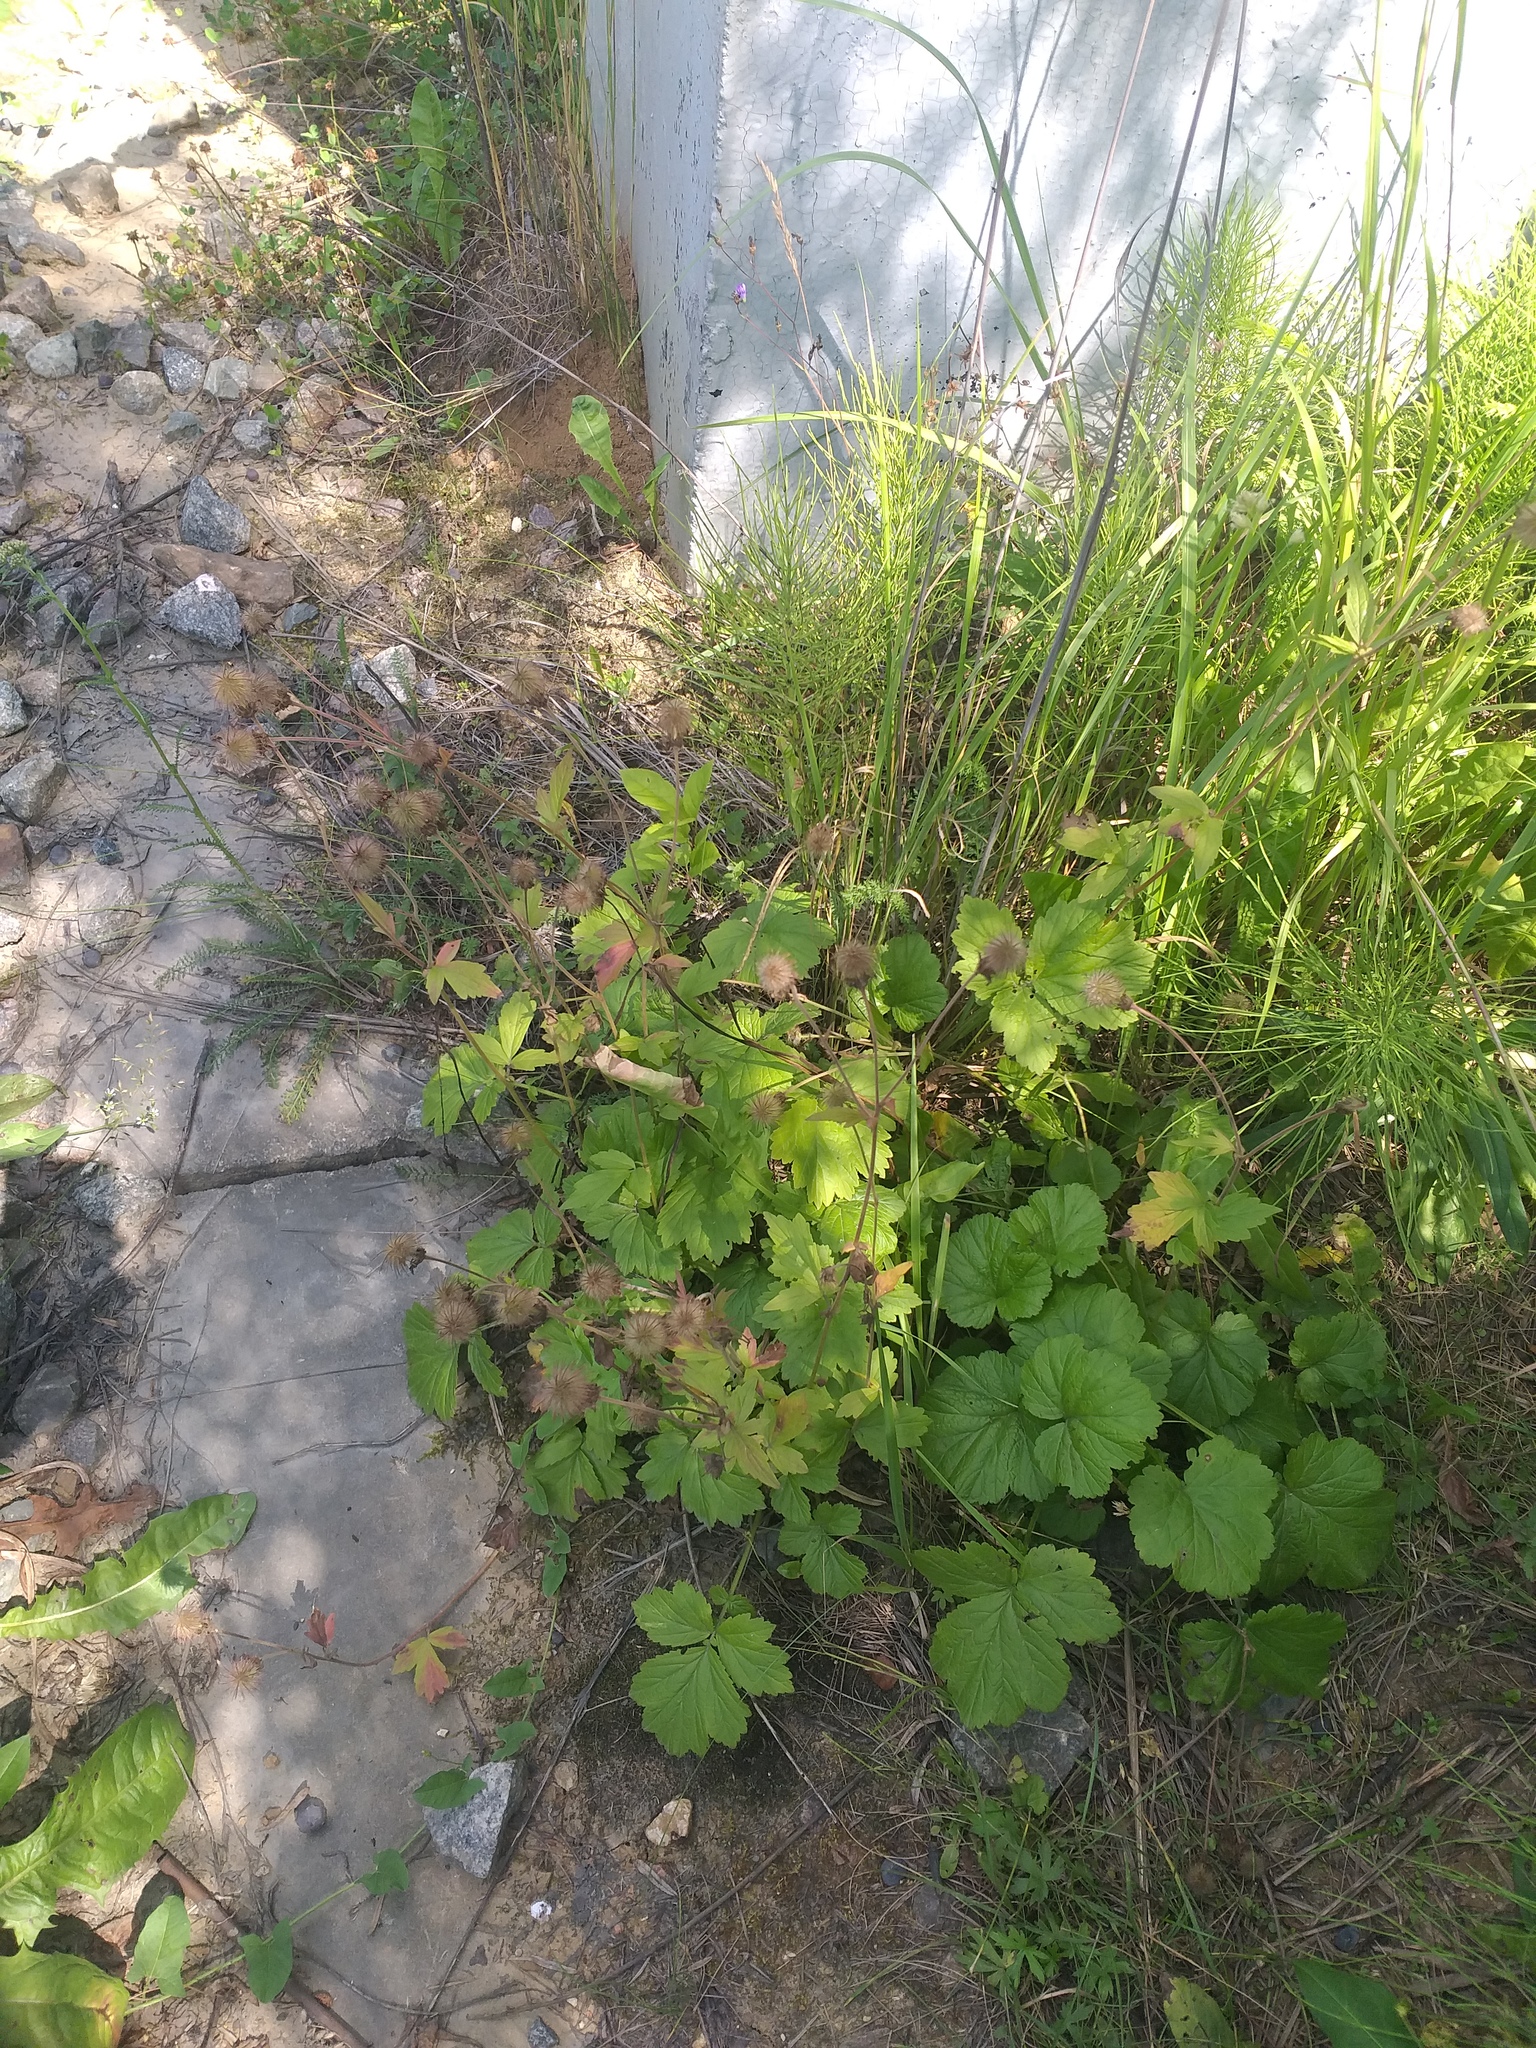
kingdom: Plantae
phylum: Tracheophyta
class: Magnoliopsida
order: Rosales
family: Rosaceae
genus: Geum
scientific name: Geum rivale
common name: Water avens
